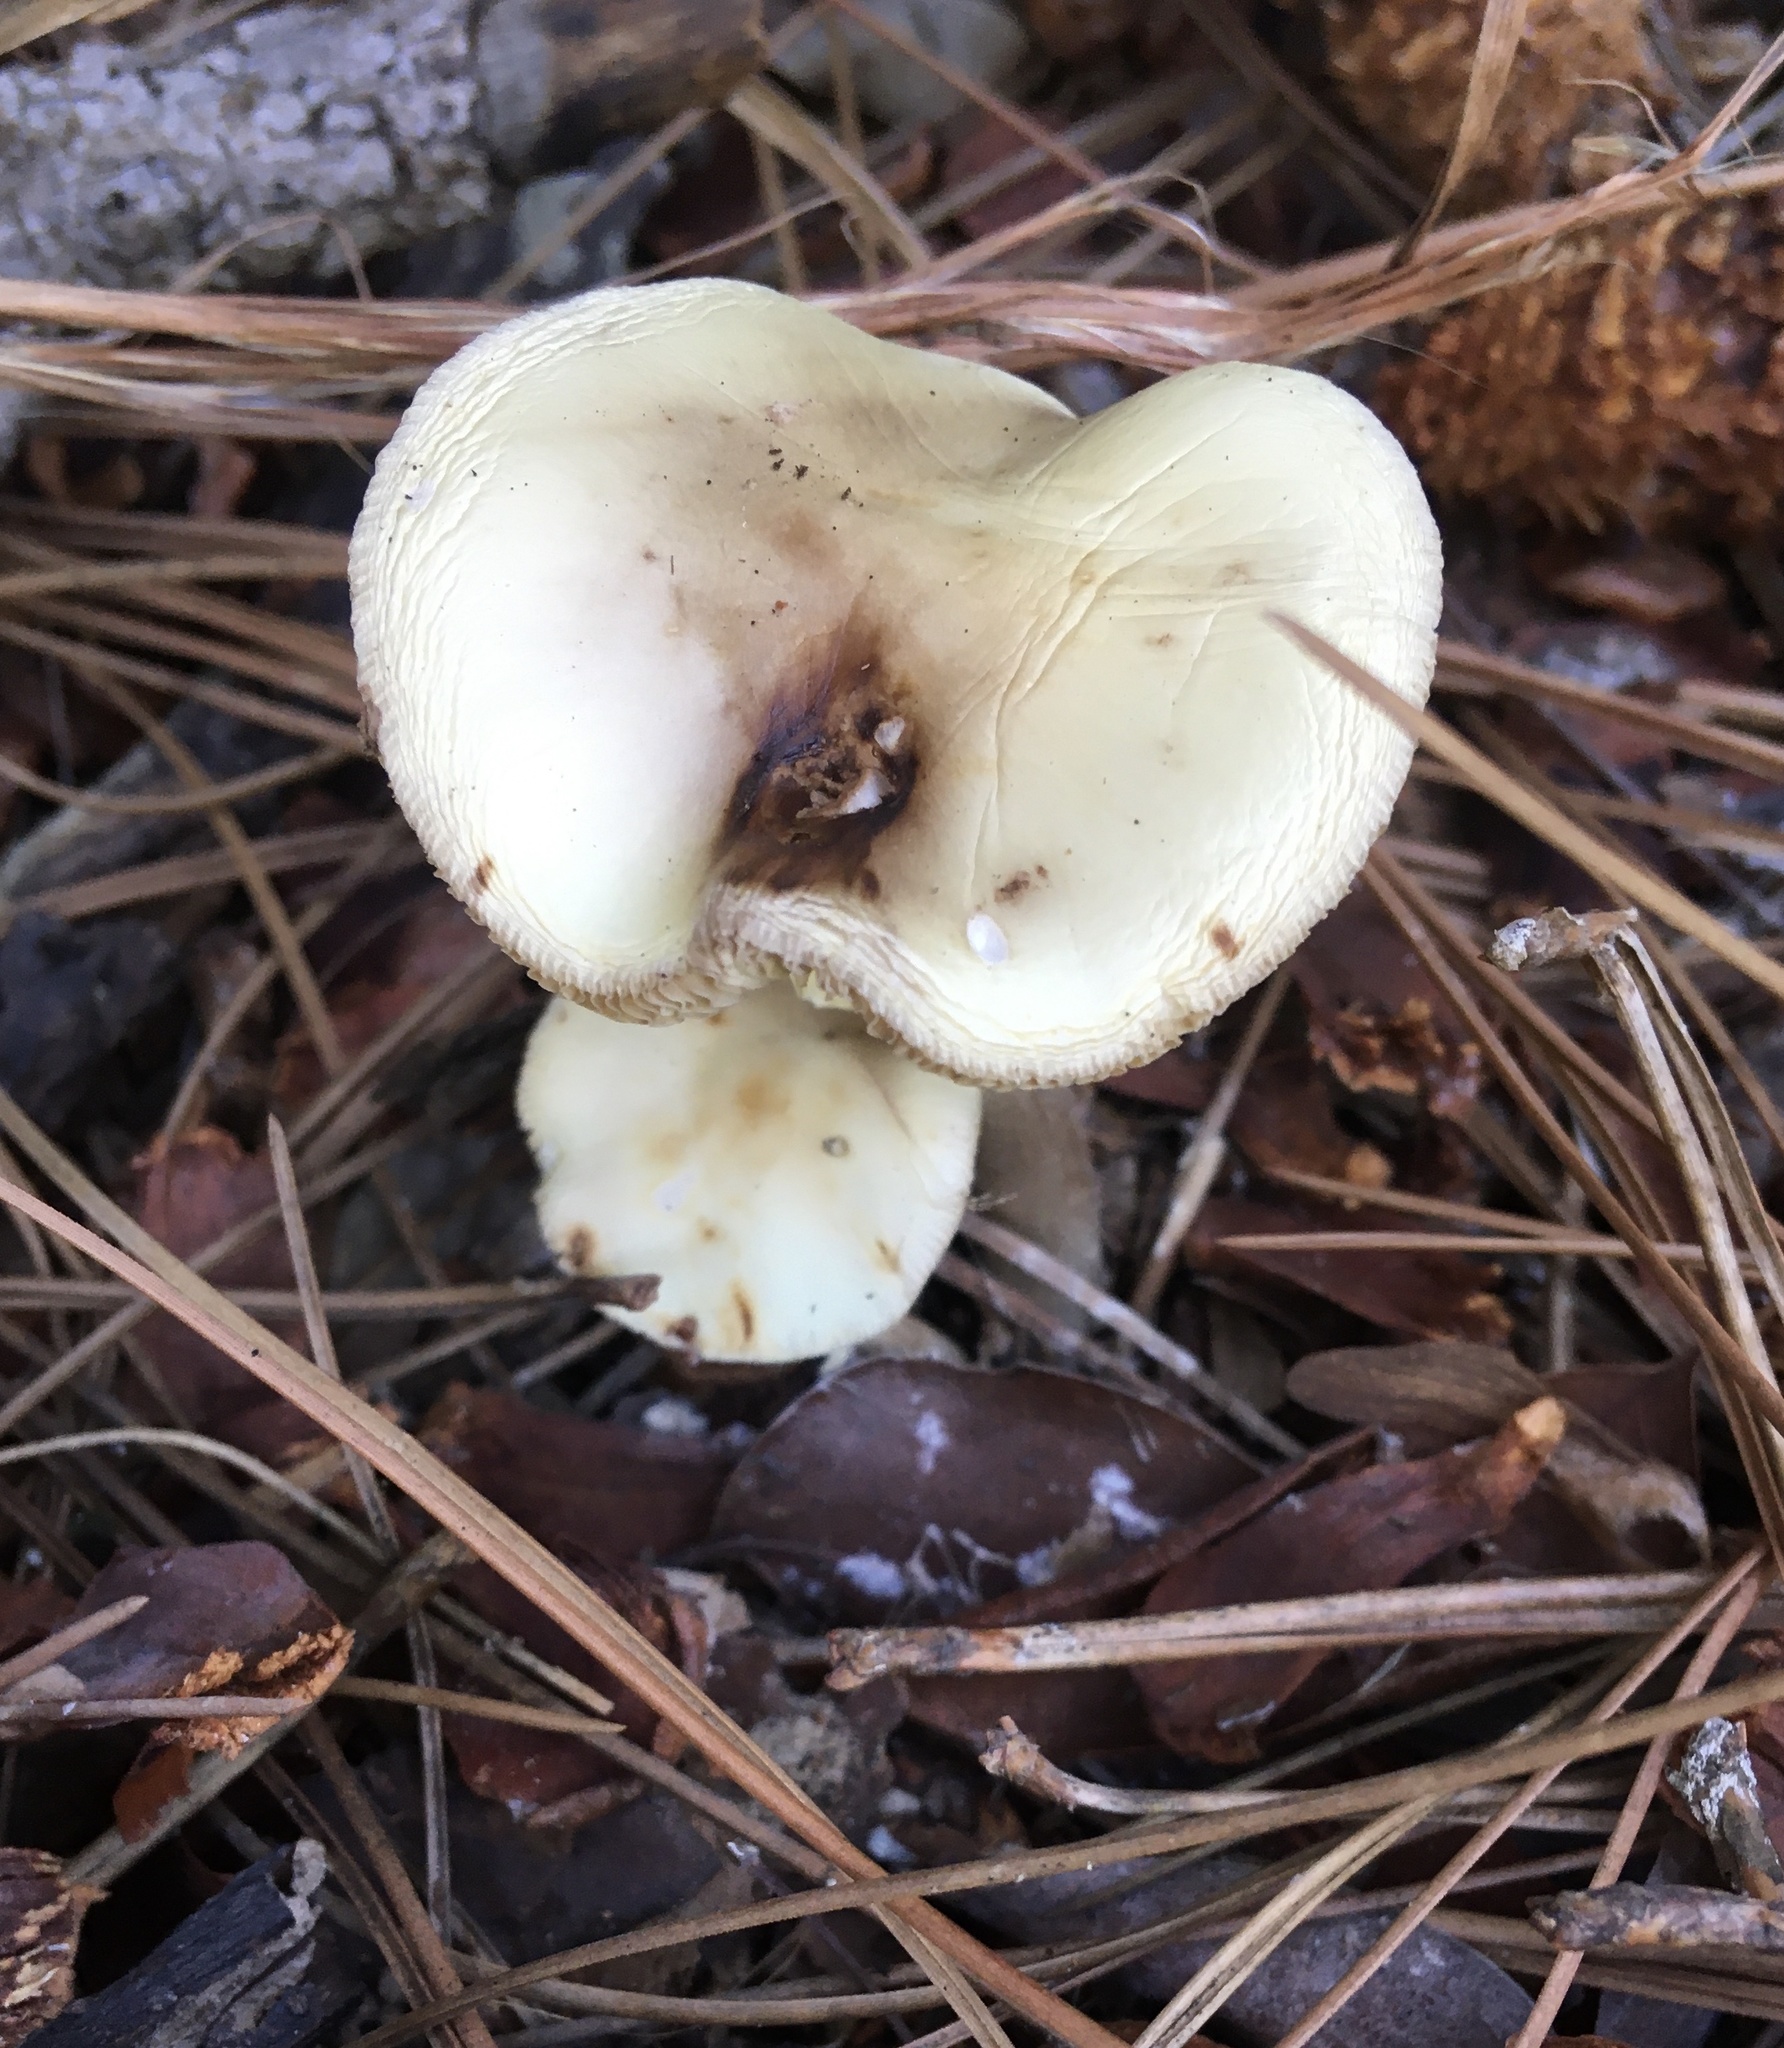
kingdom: Fungi
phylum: Basidiomycota
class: Agaricomycetes
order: Agaricales
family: Amanitaceae
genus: Amanita
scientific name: Amanita citrina
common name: False death-cap
